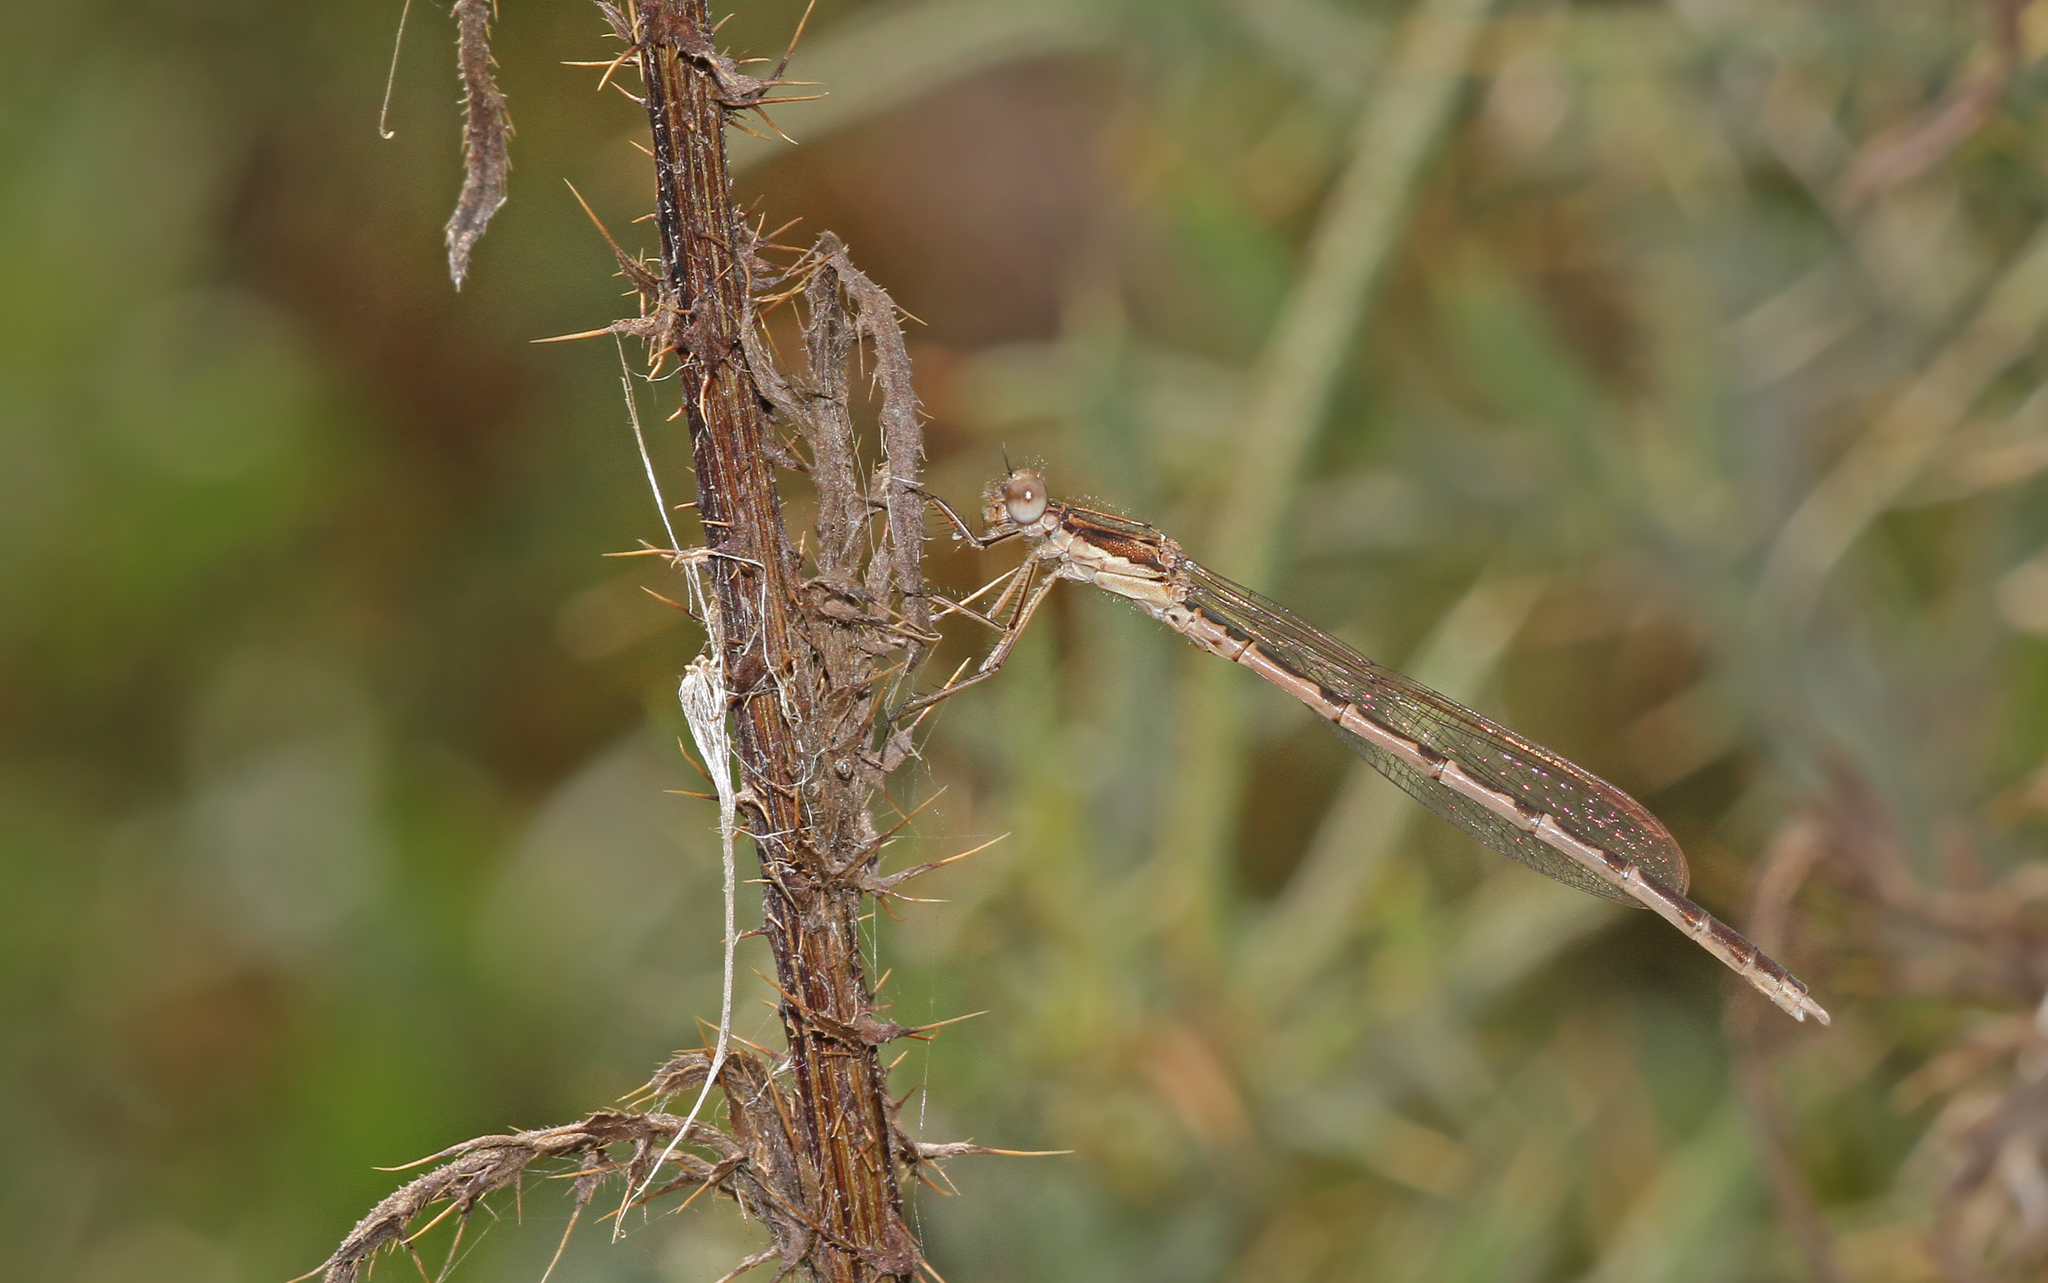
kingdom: Animalia
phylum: Arthropoda
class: Insecta
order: Odonata
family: Lestidae
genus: Sympecma
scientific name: Sympecma fusca
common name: Common winter damsel
